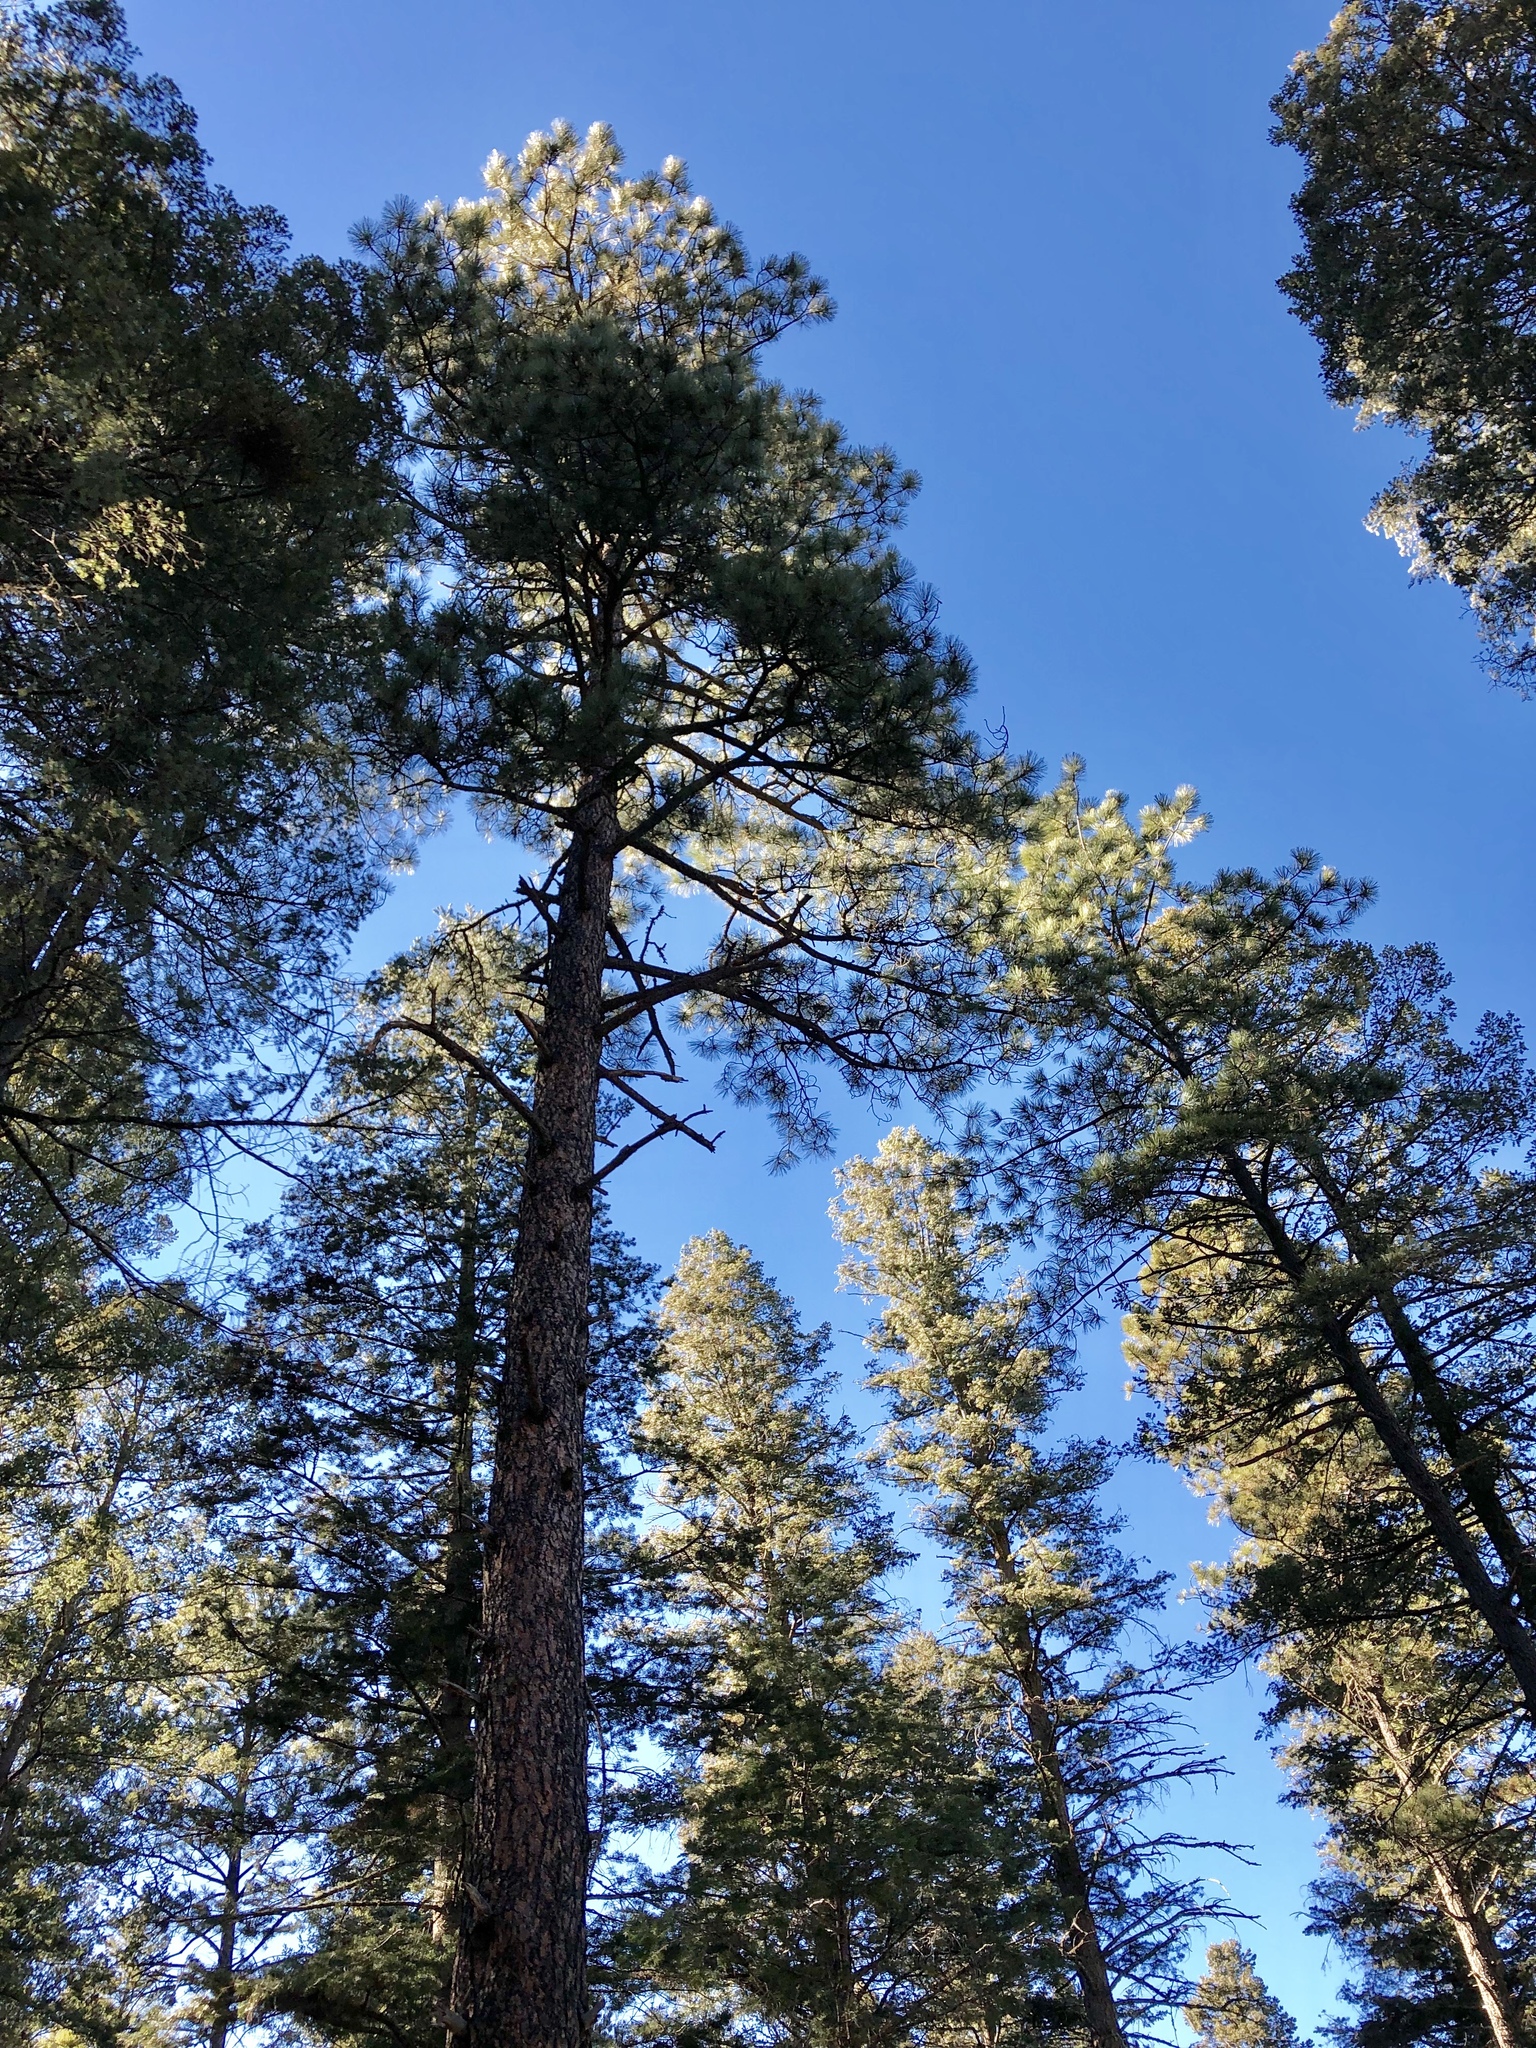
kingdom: Plantae
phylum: Tracheophyta
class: Pinopsida
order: Pinales
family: Pinaceae
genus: Pinus
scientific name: Pinus ponderosa
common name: Western yellow-pine
